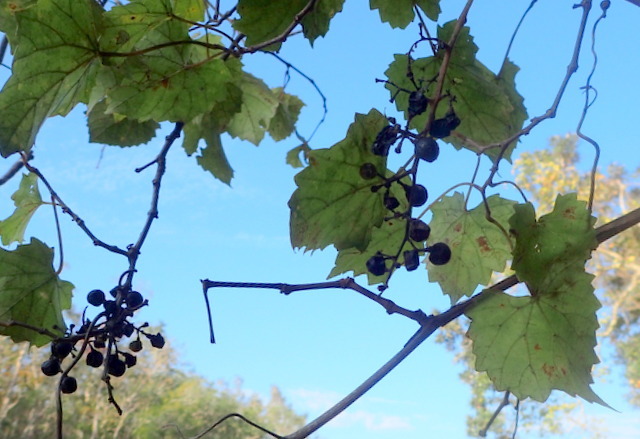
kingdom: Plantae
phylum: Tracheophyta
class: Magnoliopsida
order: Vitales
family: Vitaceae
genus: Vitis
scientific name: Vitis vulpina
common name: Frost grape
